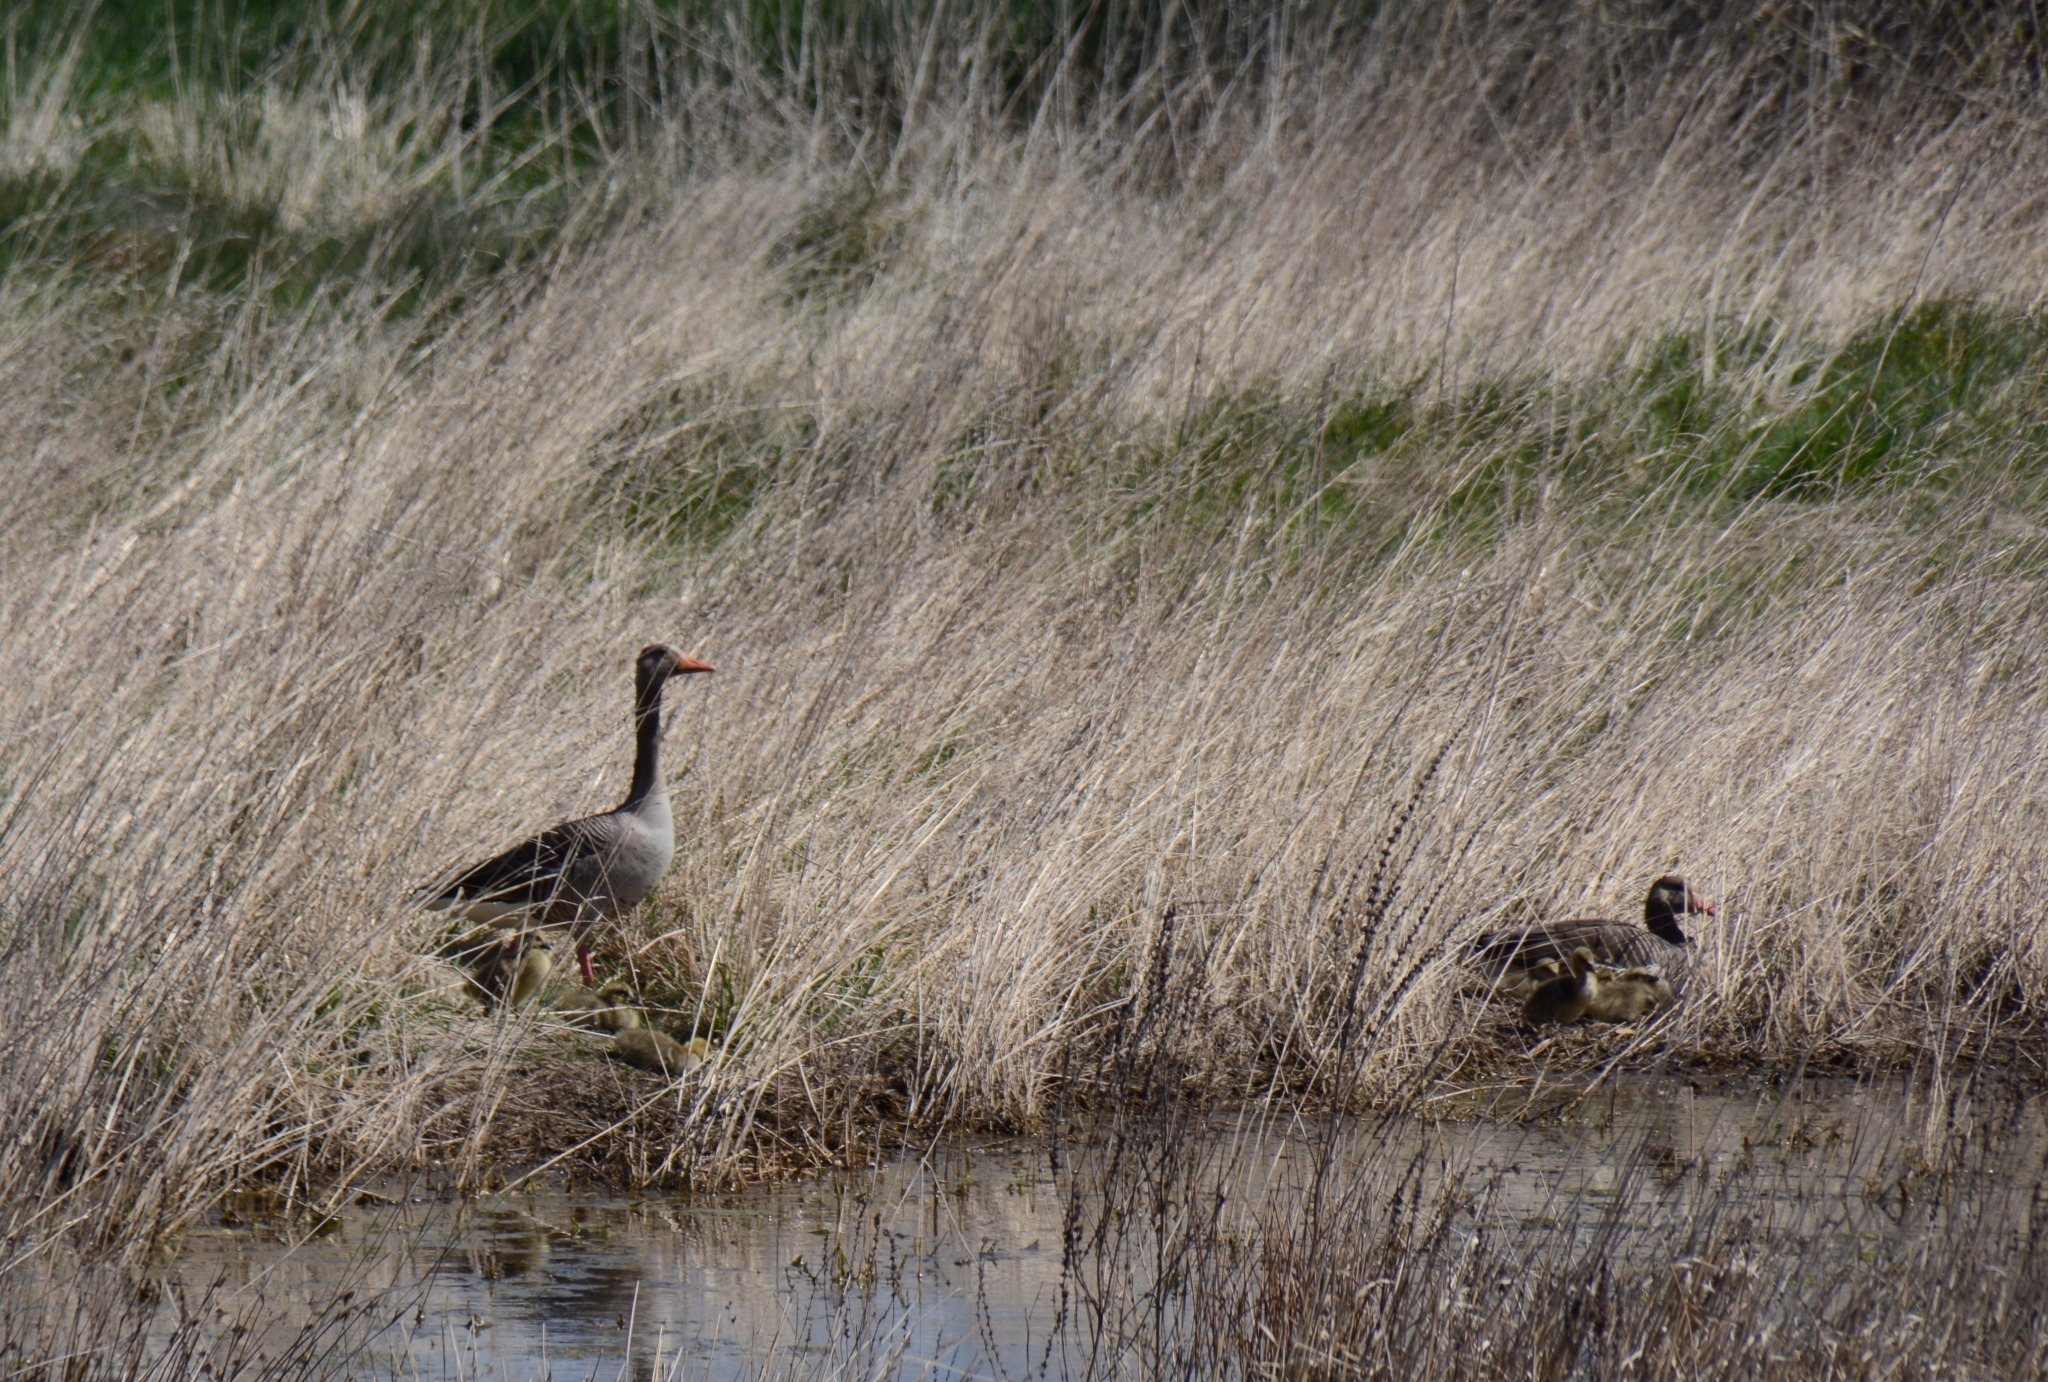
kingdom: Animalia
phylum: Chordata
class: Aves
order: Anseriformes
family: Anatidae
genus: Anser
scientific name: Anser anser
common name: Greylag goose
